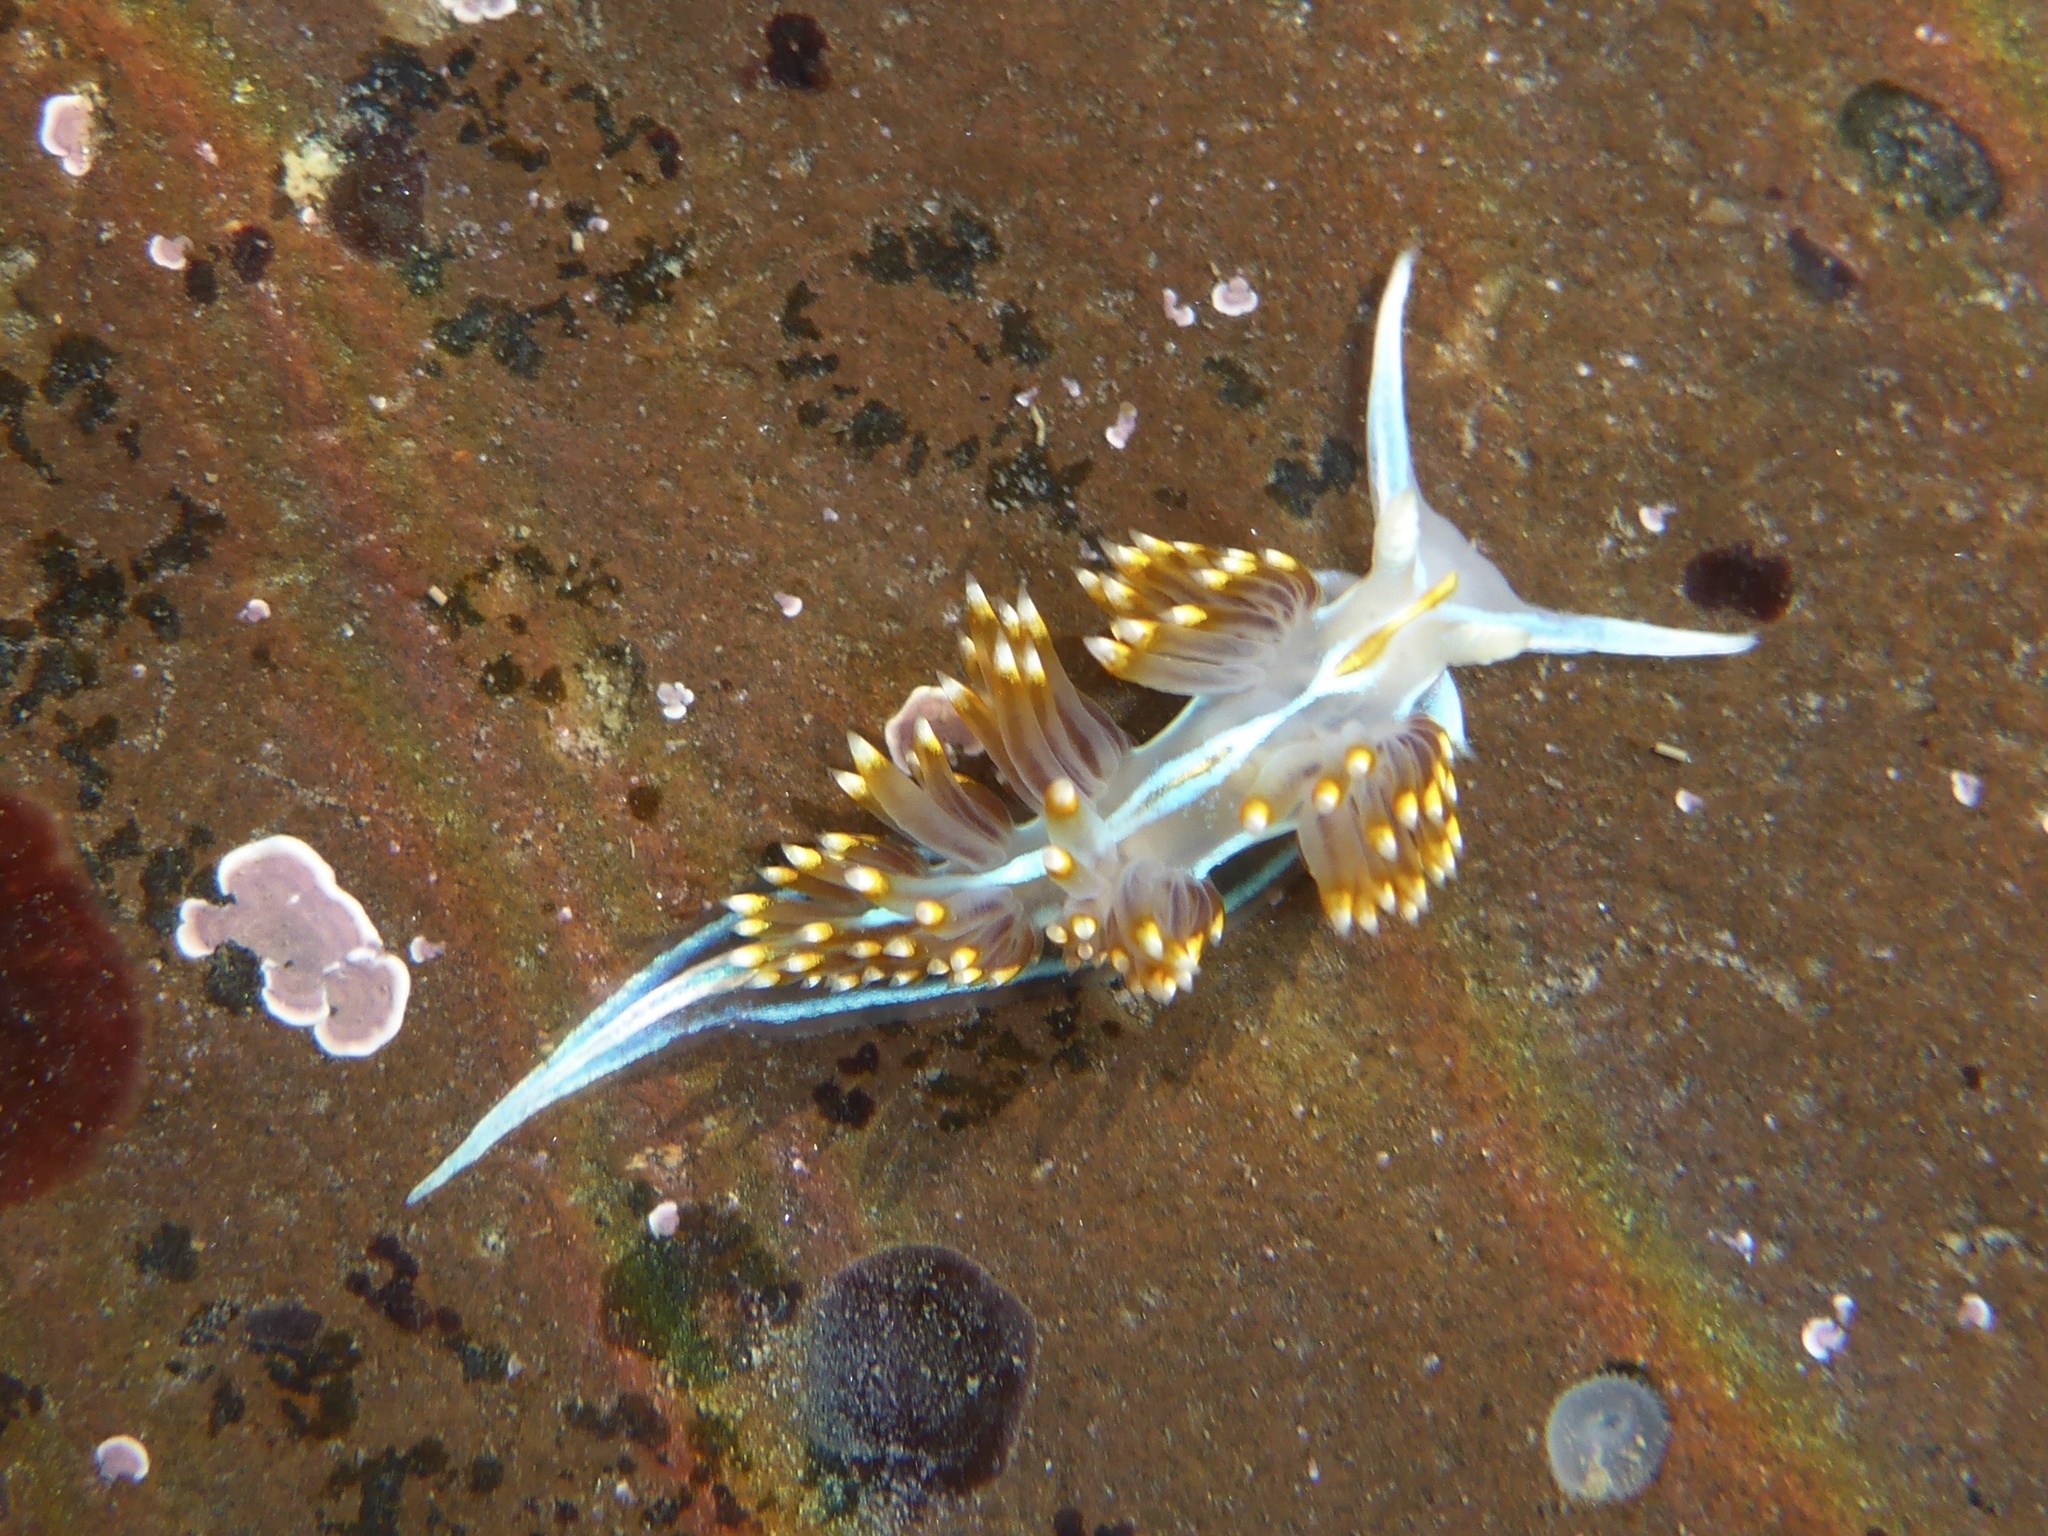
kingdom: Animalia
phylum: Mollusca
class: Gastropoda
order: Nudibranchia
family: Myrrhinidae
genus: Hermissenda
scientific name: Hermissenda opalescens
